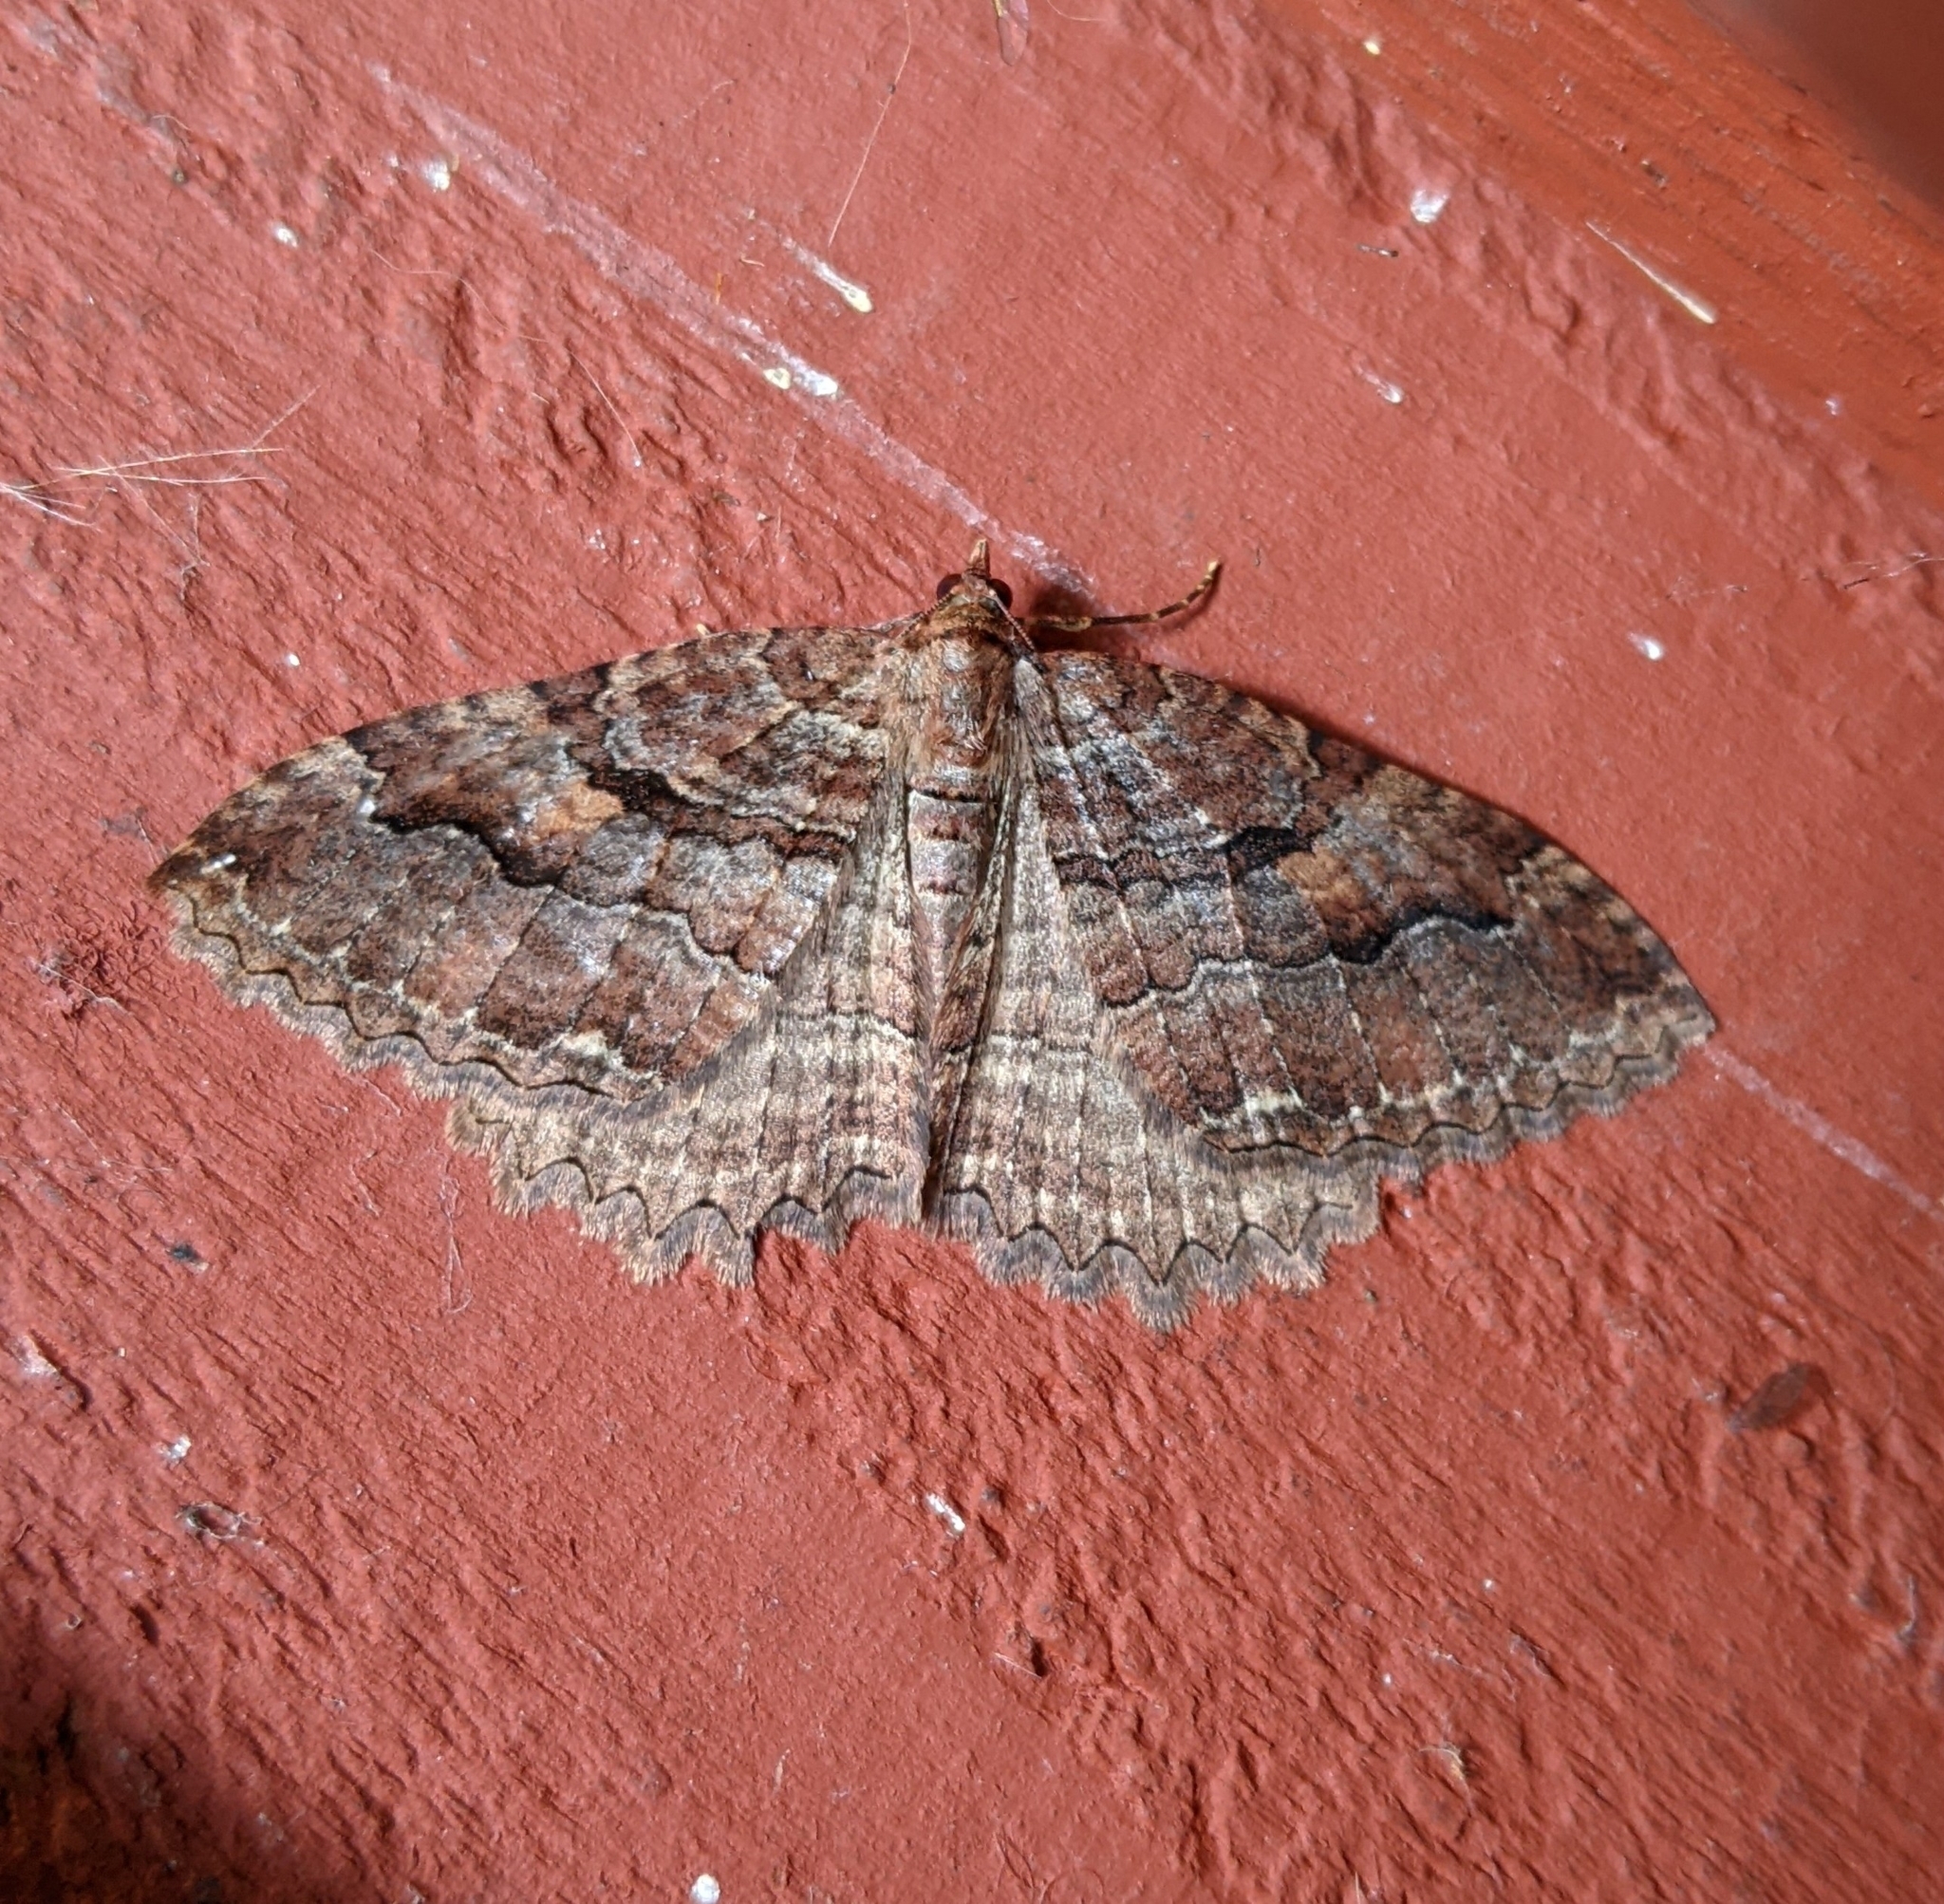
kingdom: Animalia
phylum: Arthropoda
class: Insecta
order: Lepidoptera
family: Geometridae
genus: Triphosa
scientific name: Triphosa haesitata
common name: Tissue moth
